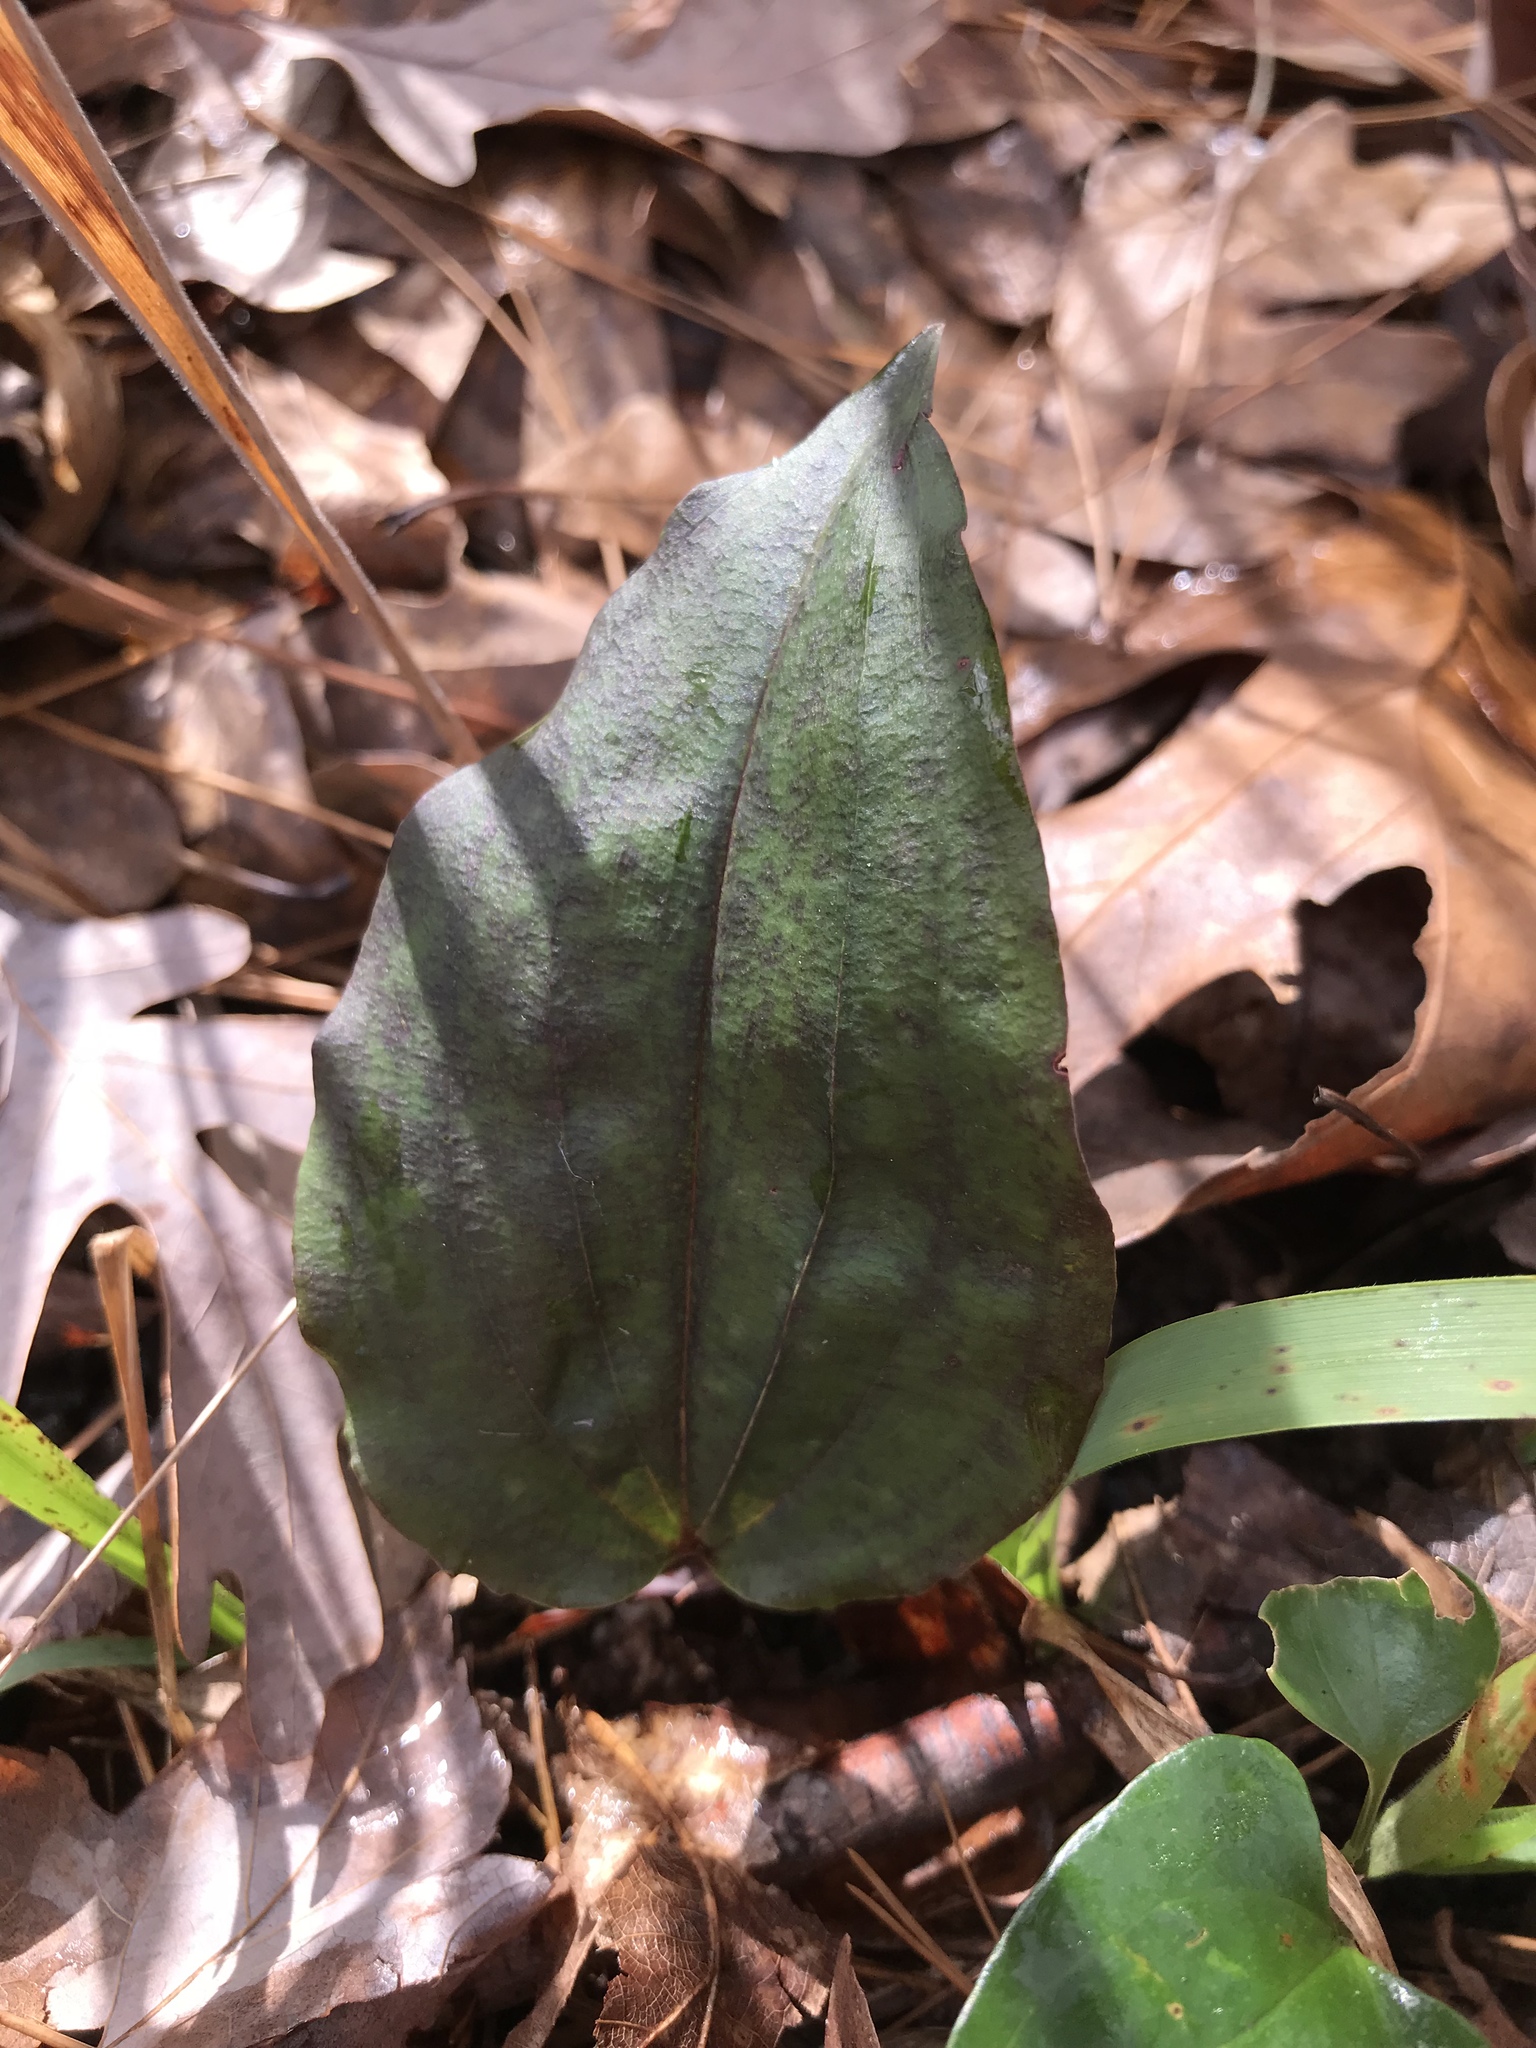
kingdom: Plantae
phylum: Tracheophyta
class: Liliopsida
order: Asparagales
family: Orchidaceae
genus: Tipularia
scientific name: Tipularia discolor
